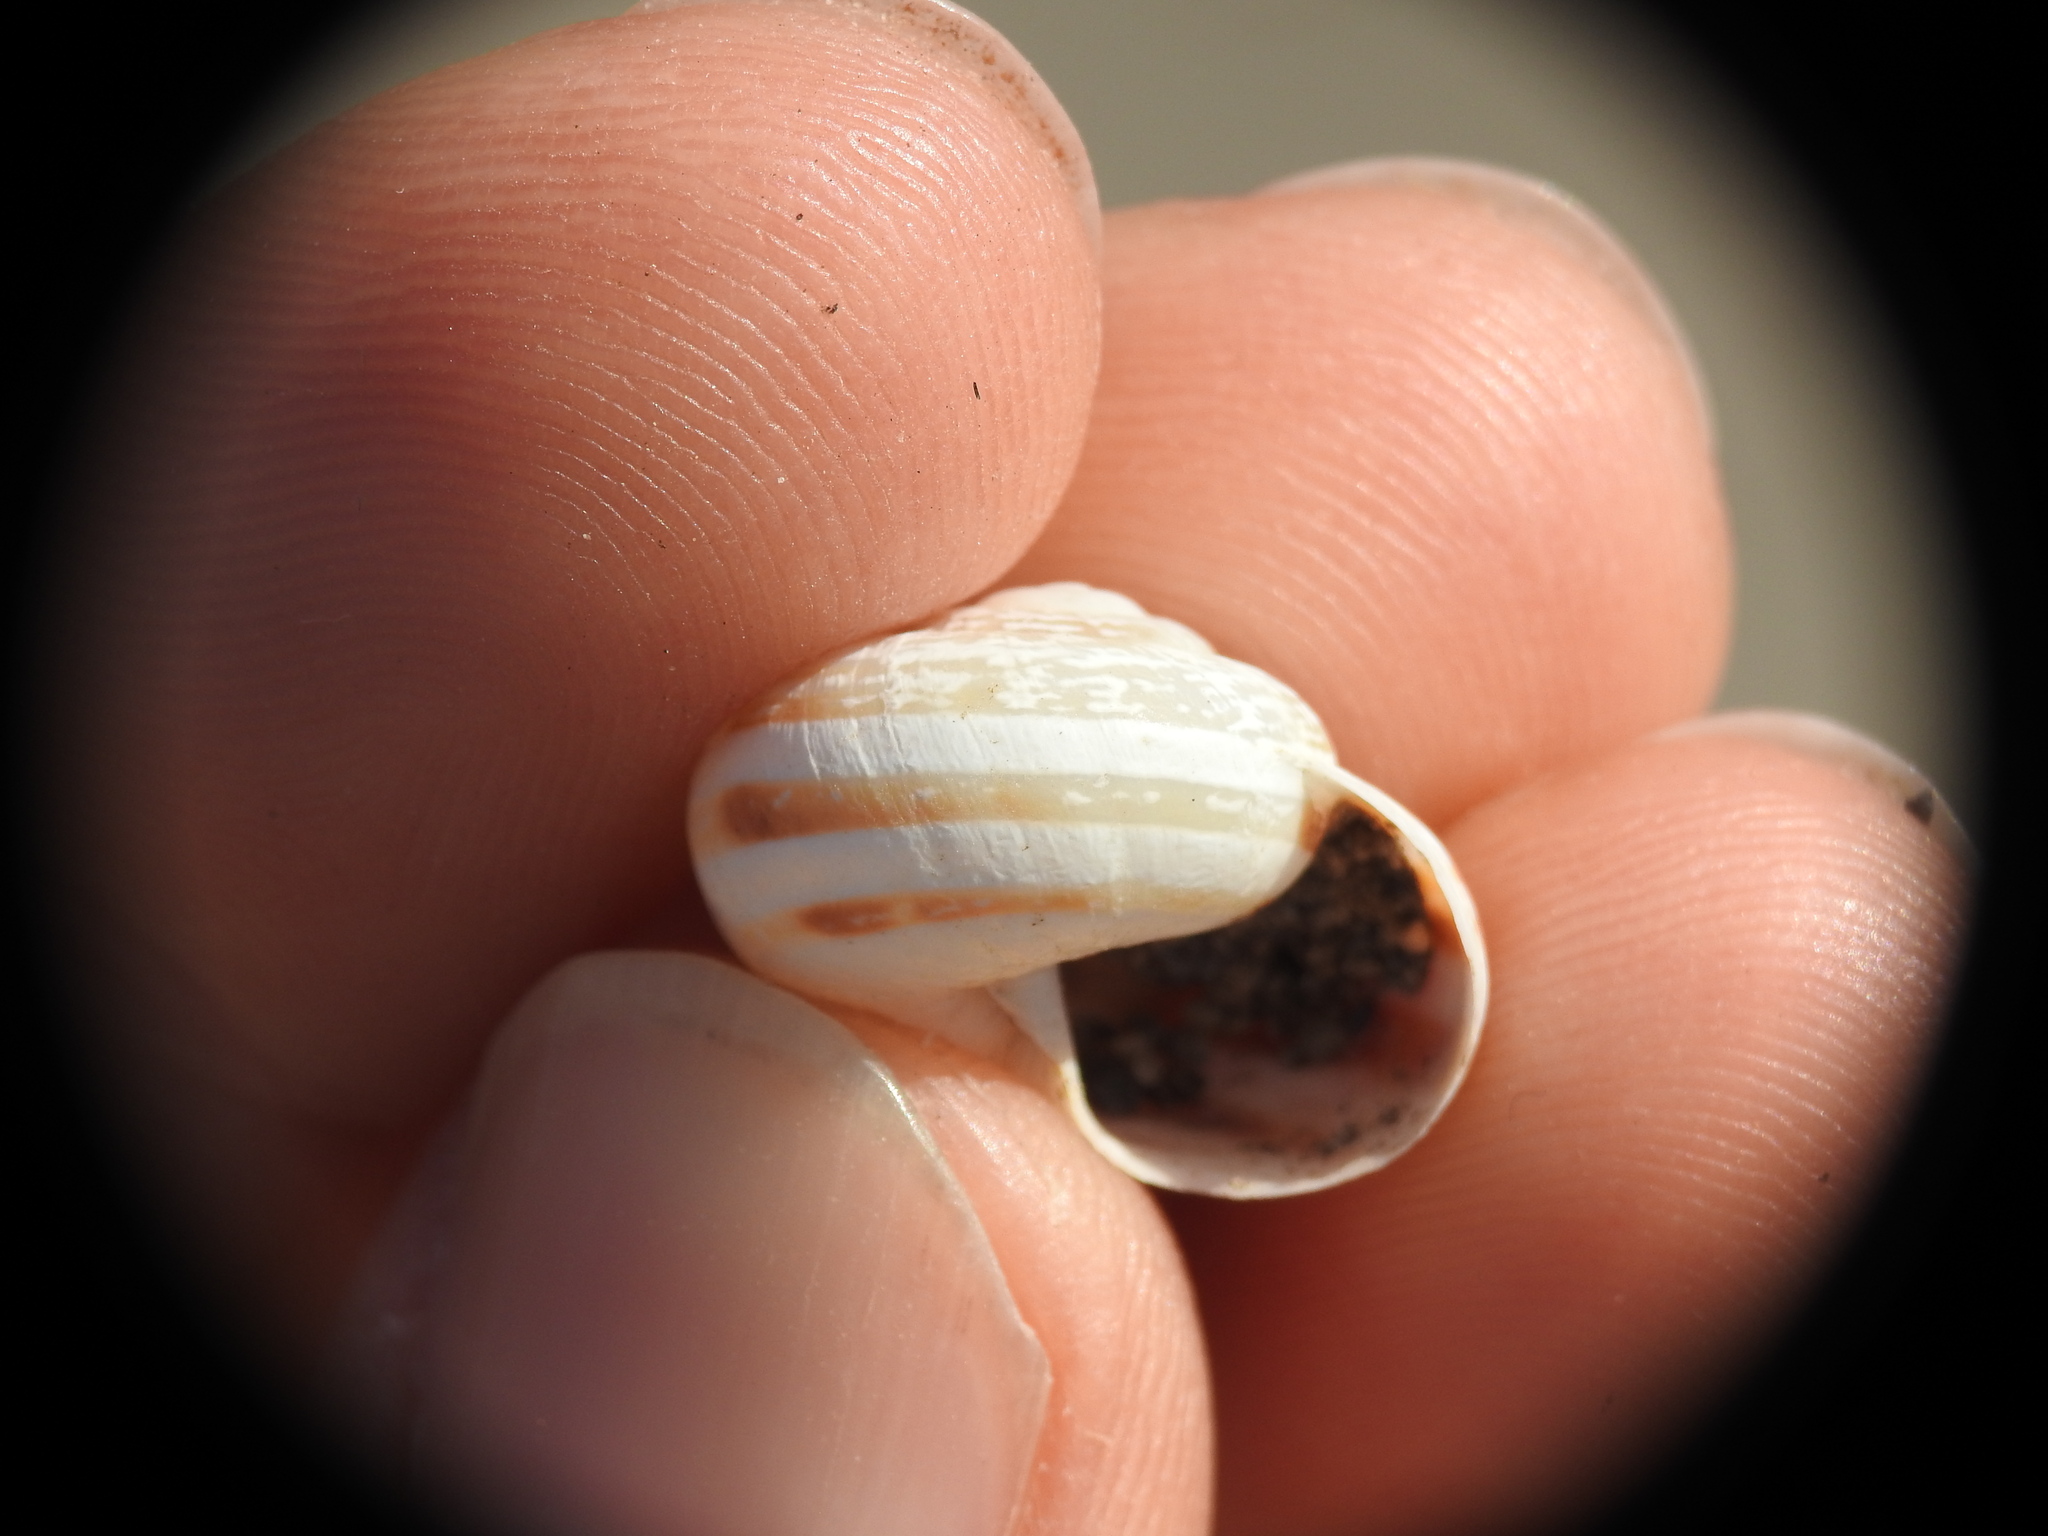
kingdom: Animalia
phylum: Mollusca
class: Gastropoda
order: Stylommatophora
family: Helicidae
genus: Eobania
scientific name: Eobania vermiculata
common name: Chocolateband snail
